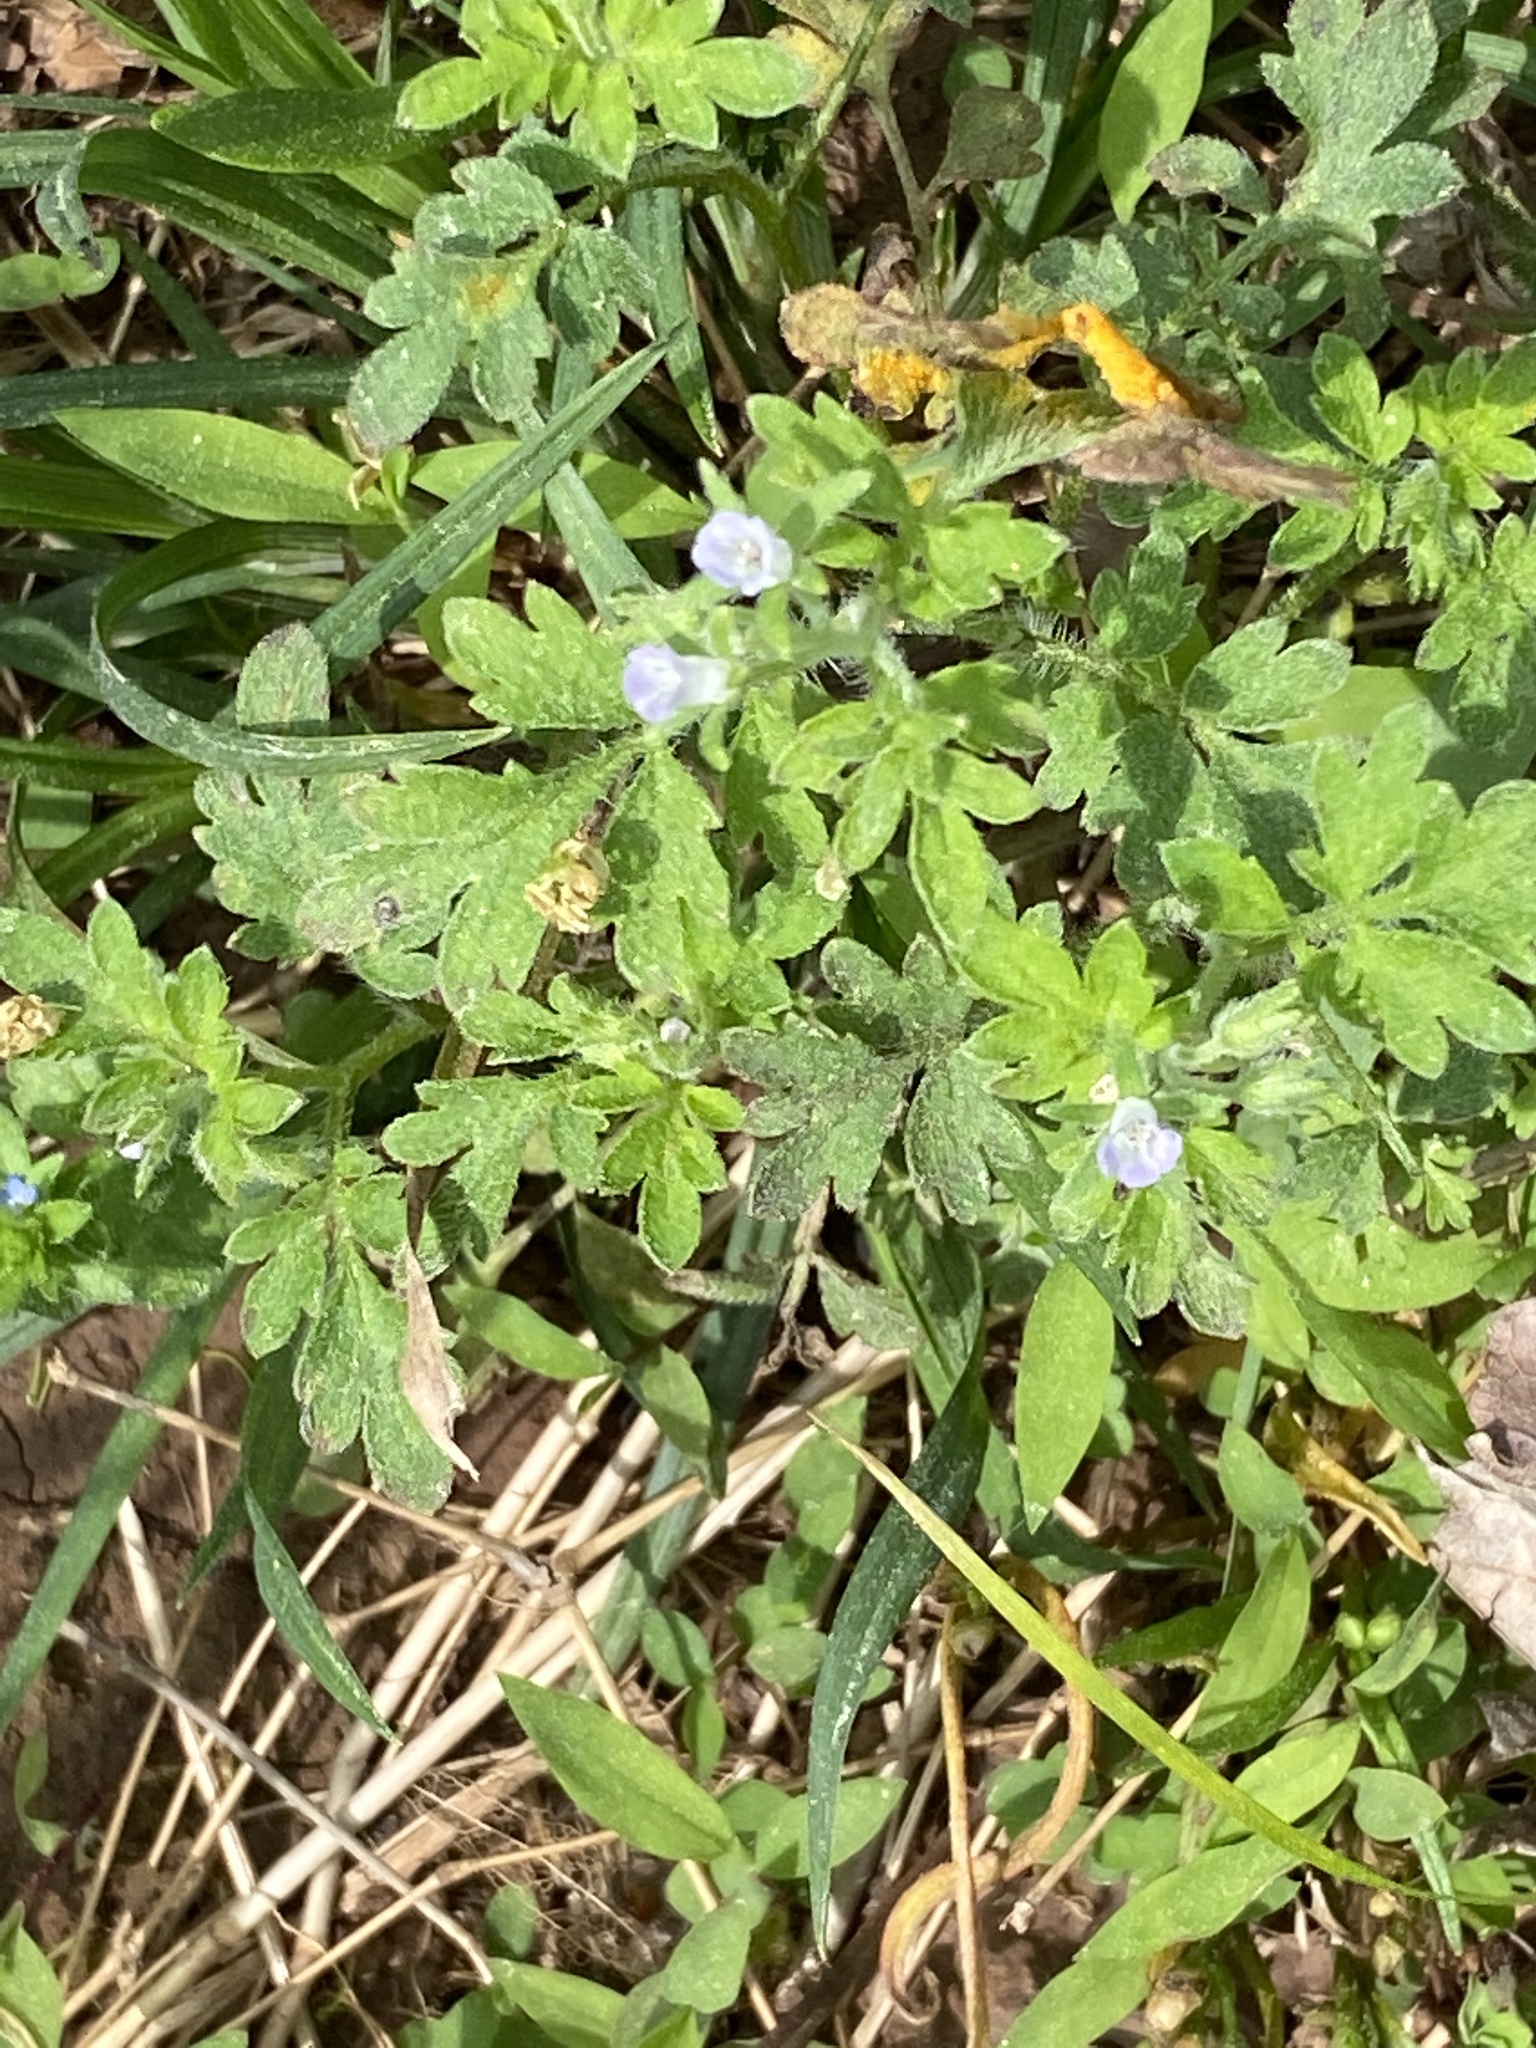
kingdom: Plantae
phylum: Tracheophyta
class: Magnoliopsida
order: Boraginales
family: Hydrophyllaceae
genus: Phacelia
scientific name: Phacelia covillei
